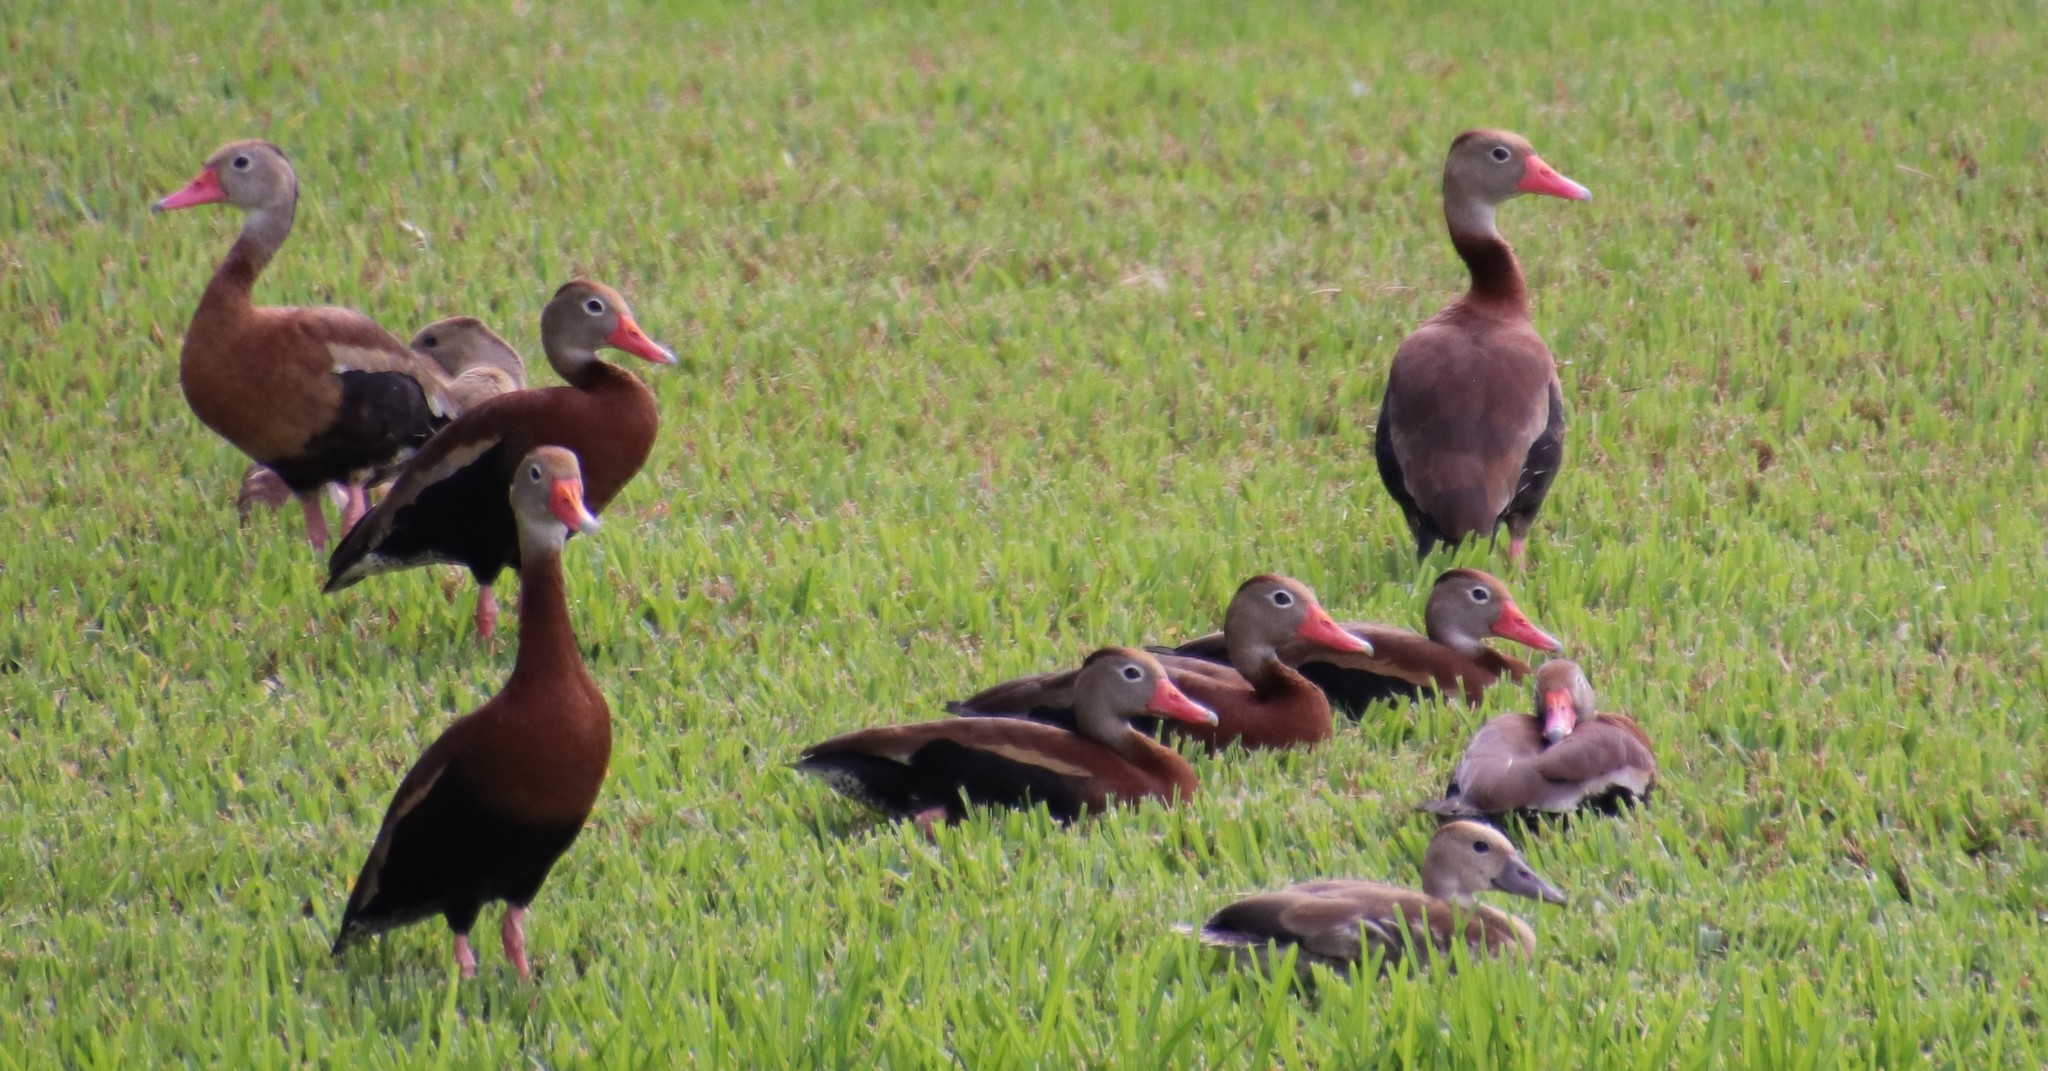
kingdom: Animalia
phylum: Chordata
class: Aves
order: Anseriformes
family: Anatidae
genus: Dendrocygna
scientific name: Dendrocygna autumnalis
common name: Black-bellied whistling duck
